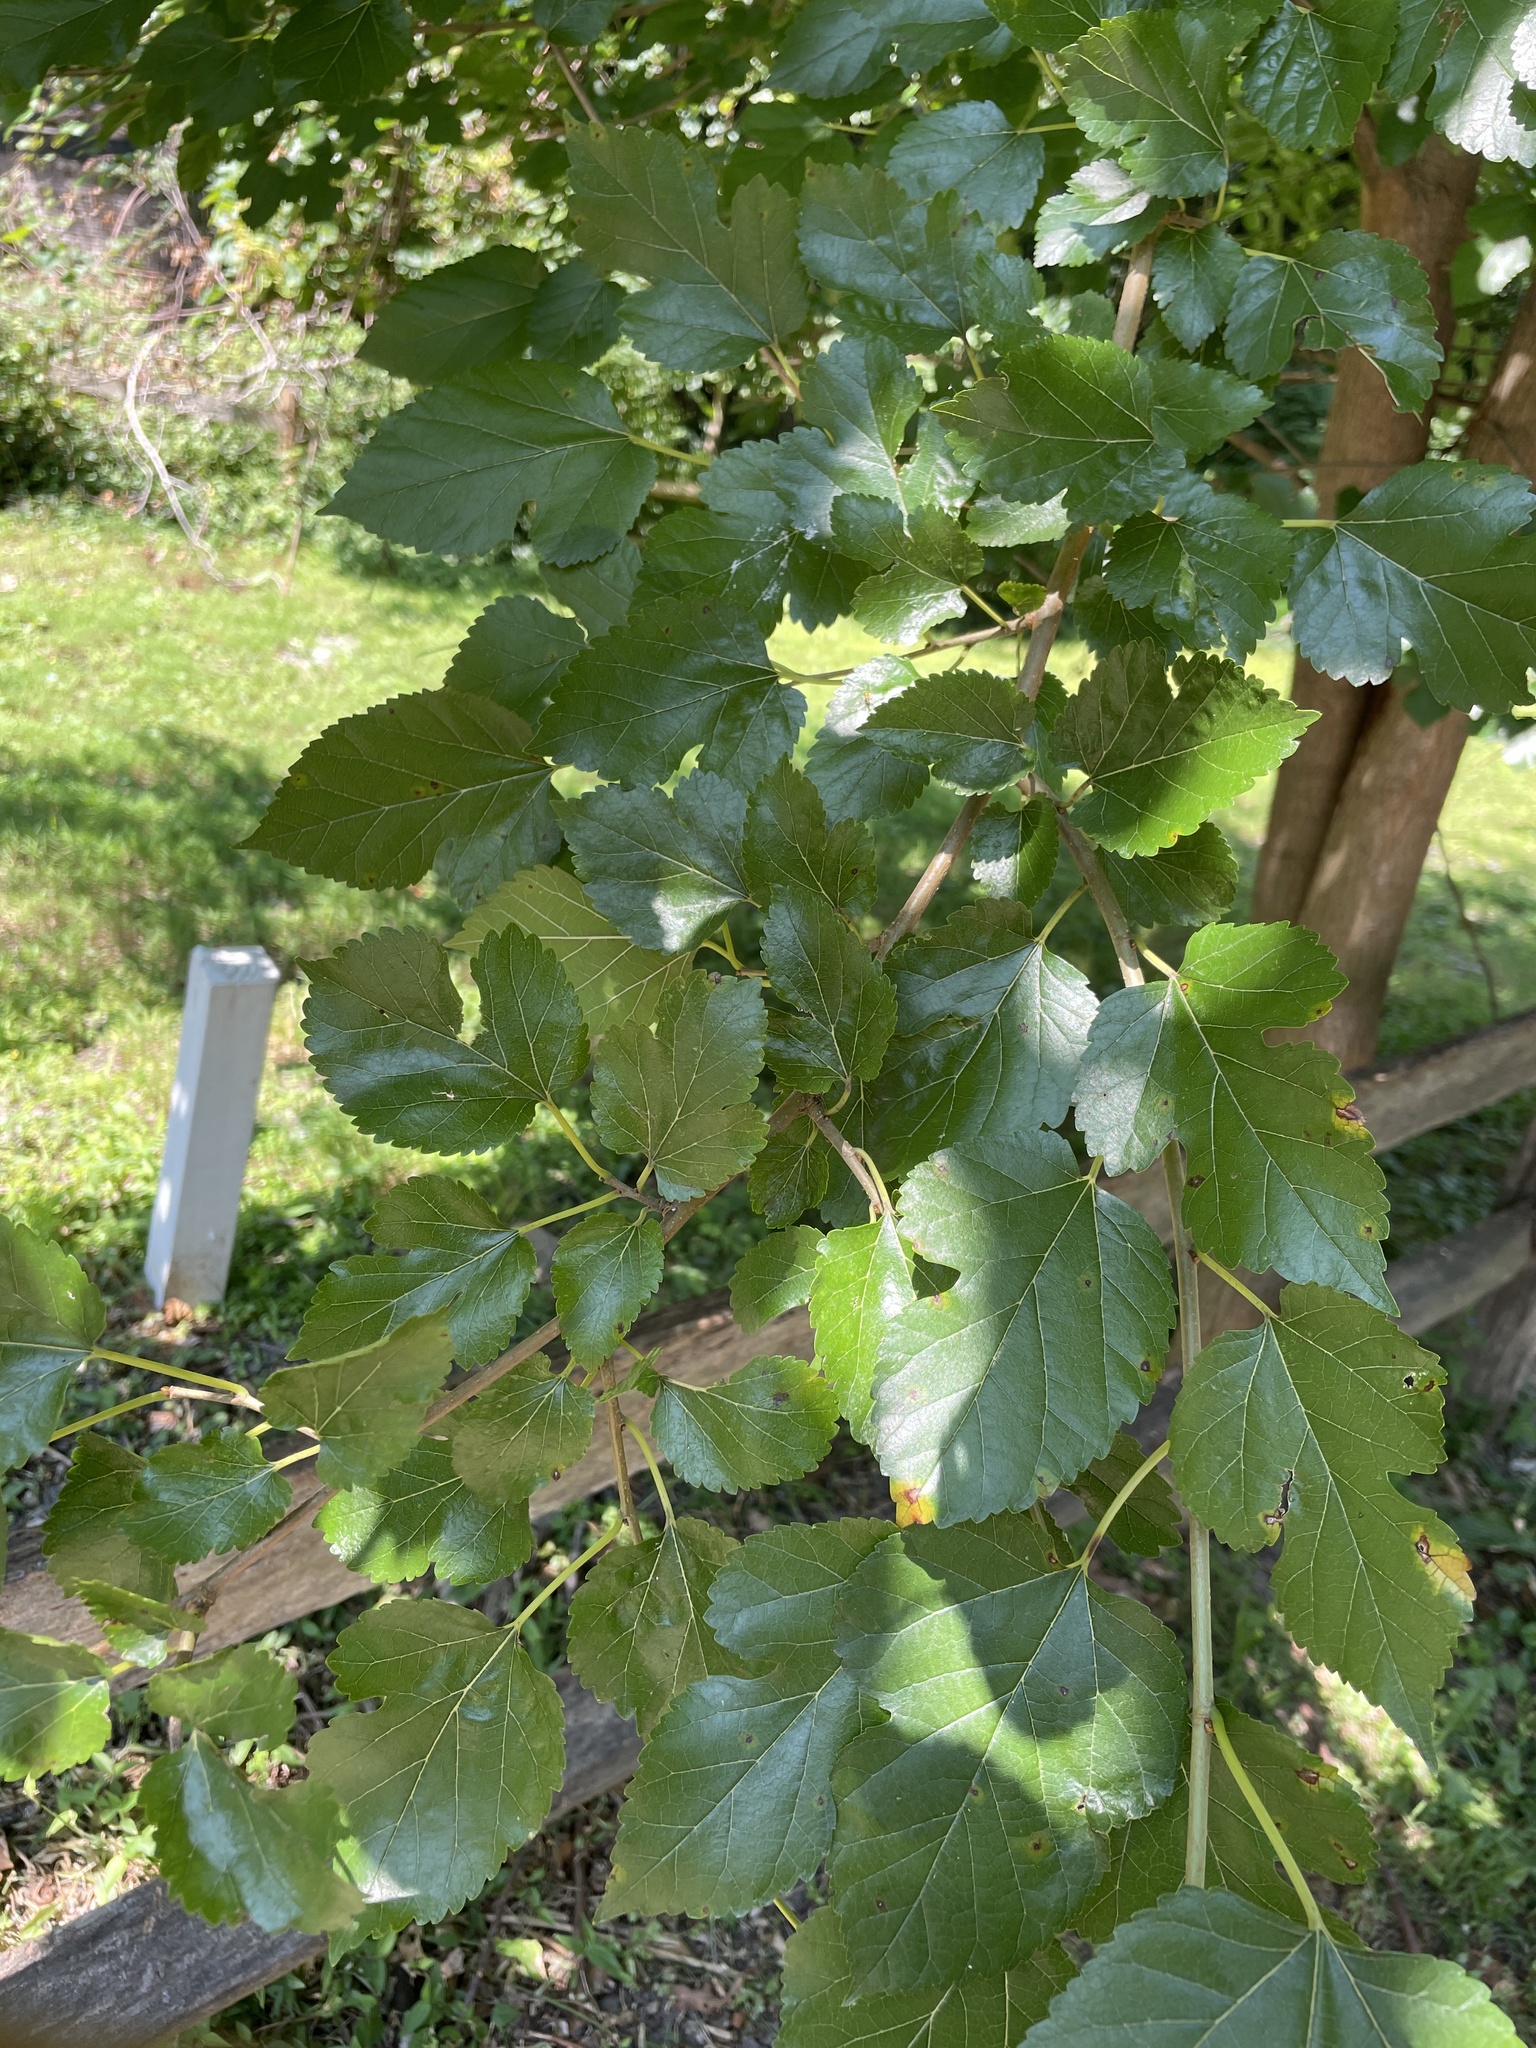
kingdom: Plantae
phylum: Tracheophyta
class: Magnoliopsida
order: Rosales
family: Moraceae
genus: Morus
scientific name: Morus alba
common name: White mulberry
